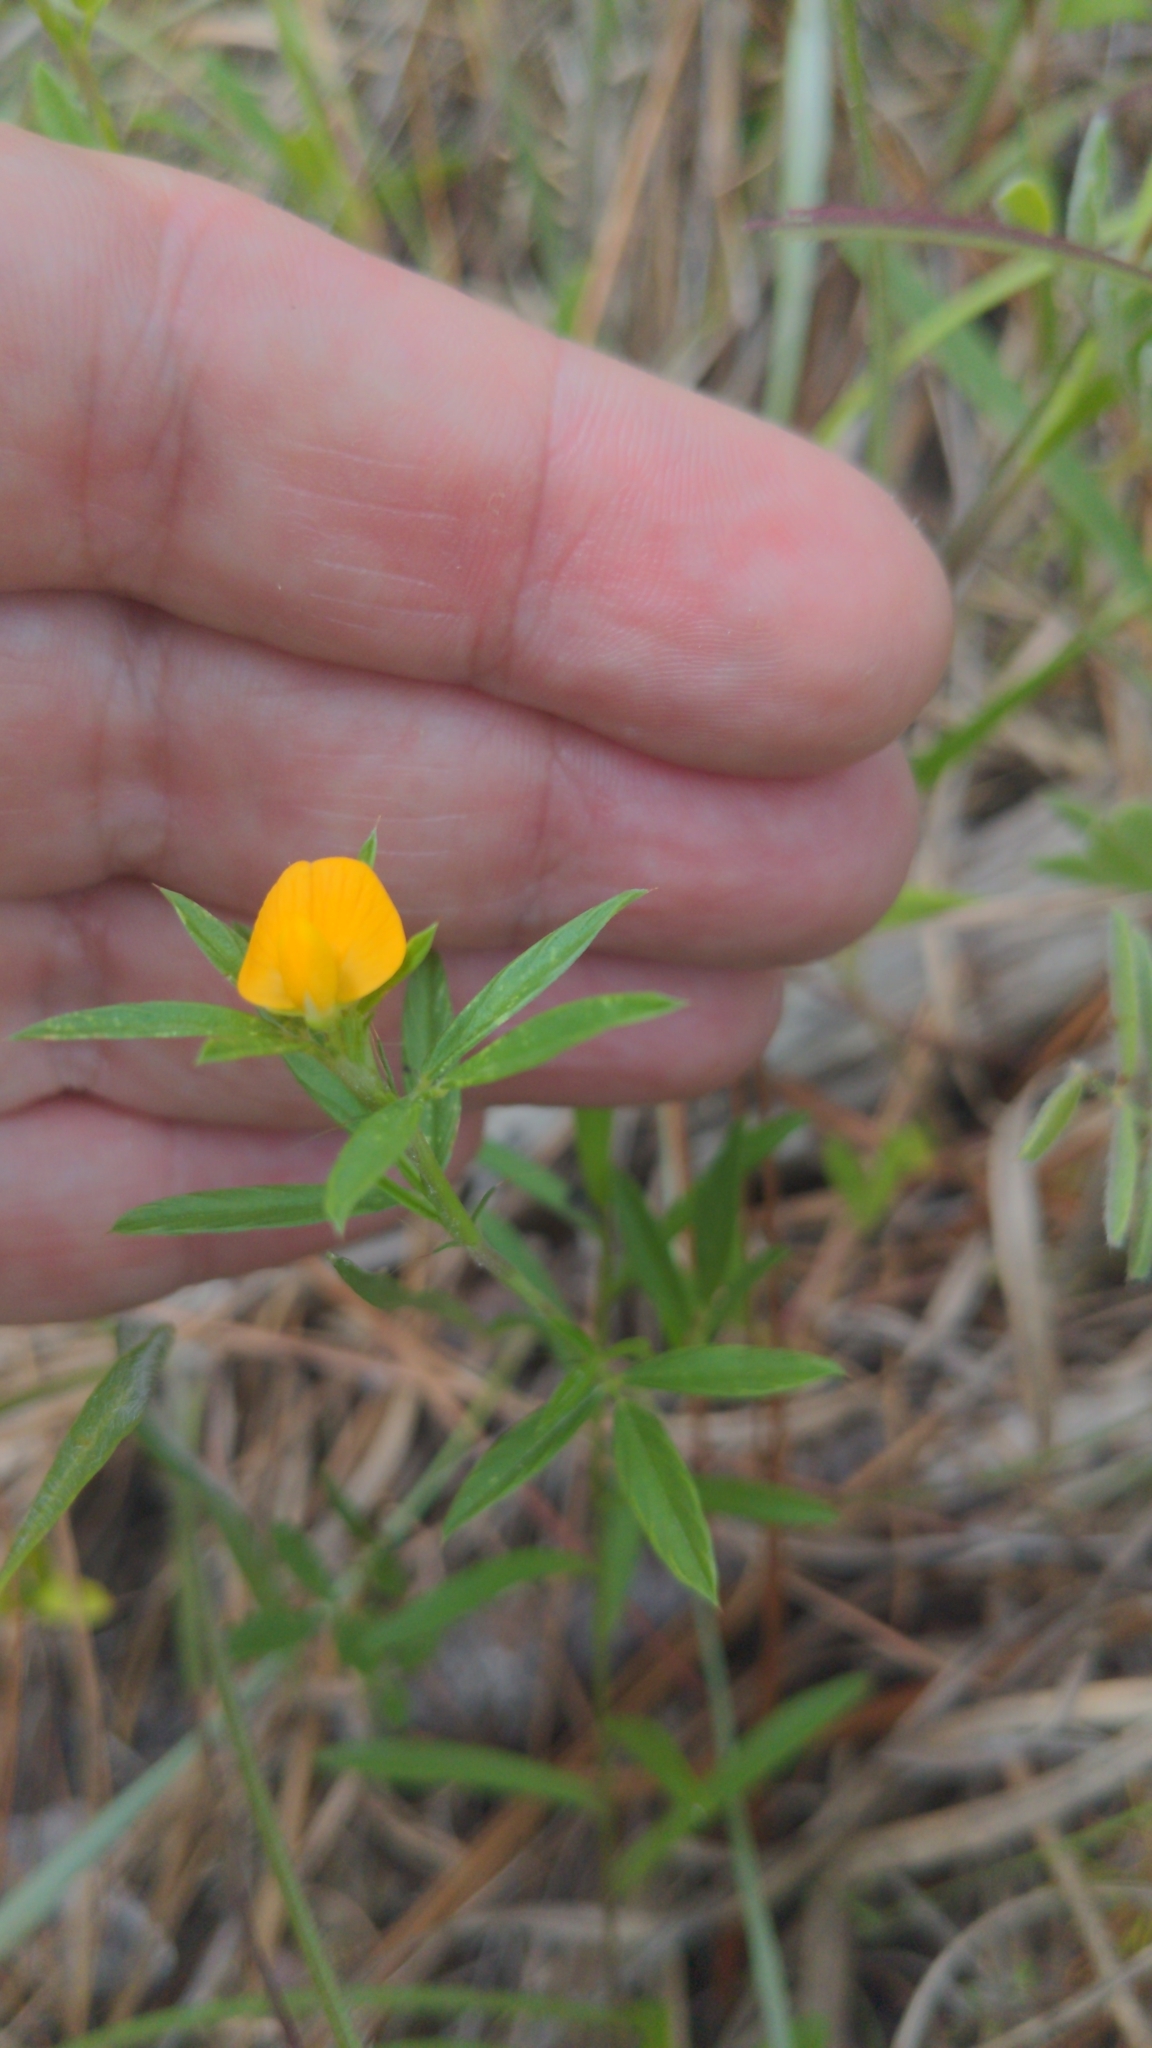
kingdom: Plantae
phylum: Tracheophyta
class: Magnoliopsida
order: Fabales
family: Fabaceae
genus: Stylosanthes
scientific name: Stylosanthes biflora
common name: Two-flower pencil-flower
